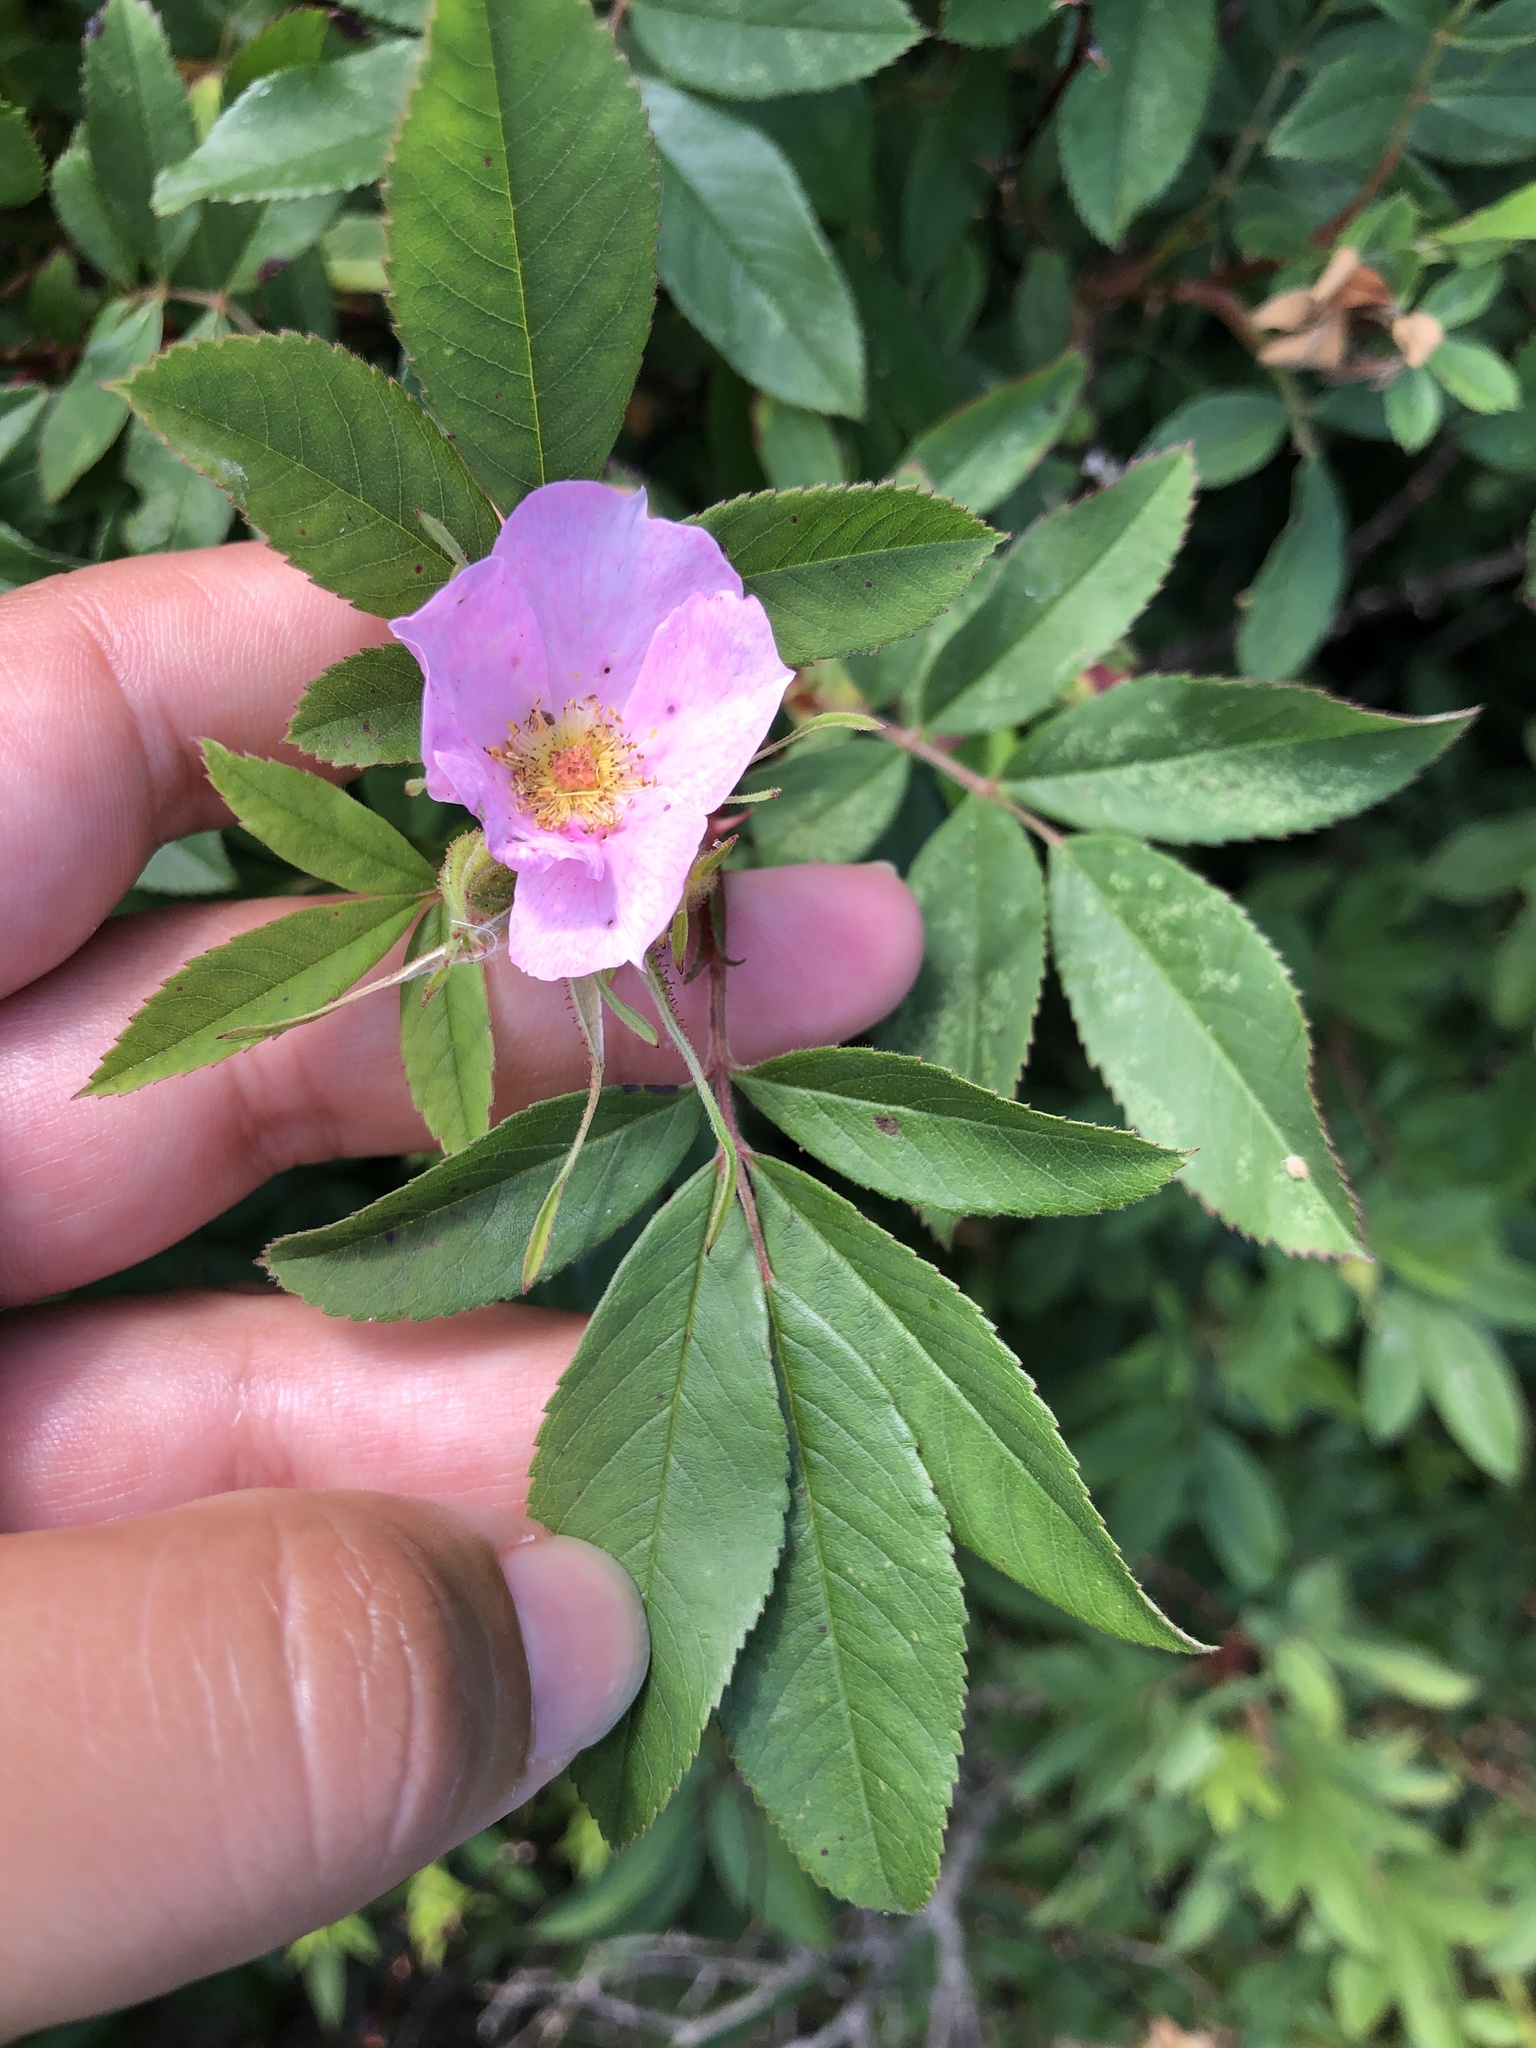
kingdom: Plantae
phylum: Tracheophyta
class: Magnoliopsida
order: Rosales
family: Rosaceae
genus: Rosa
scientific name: Rosa palustris
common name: Swamp rose
